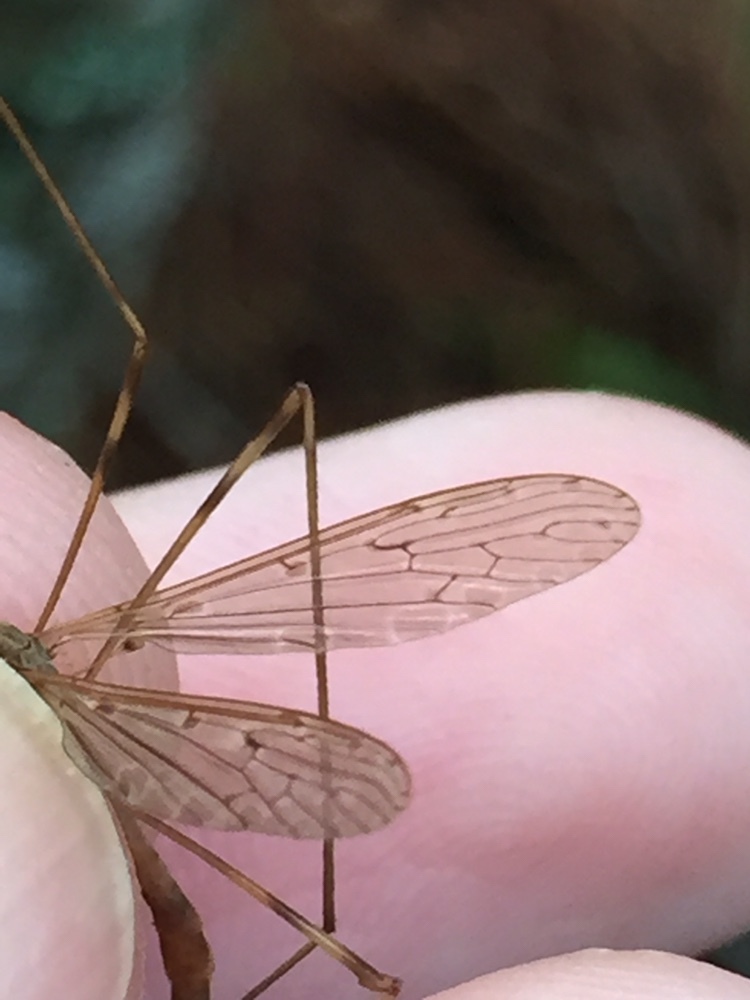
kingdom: Animalia
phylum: Arthropoda
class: Insecta
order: Diptera
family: Limoniidae
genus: Austrolimnophila
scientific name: Austrolimnophila crassipes
